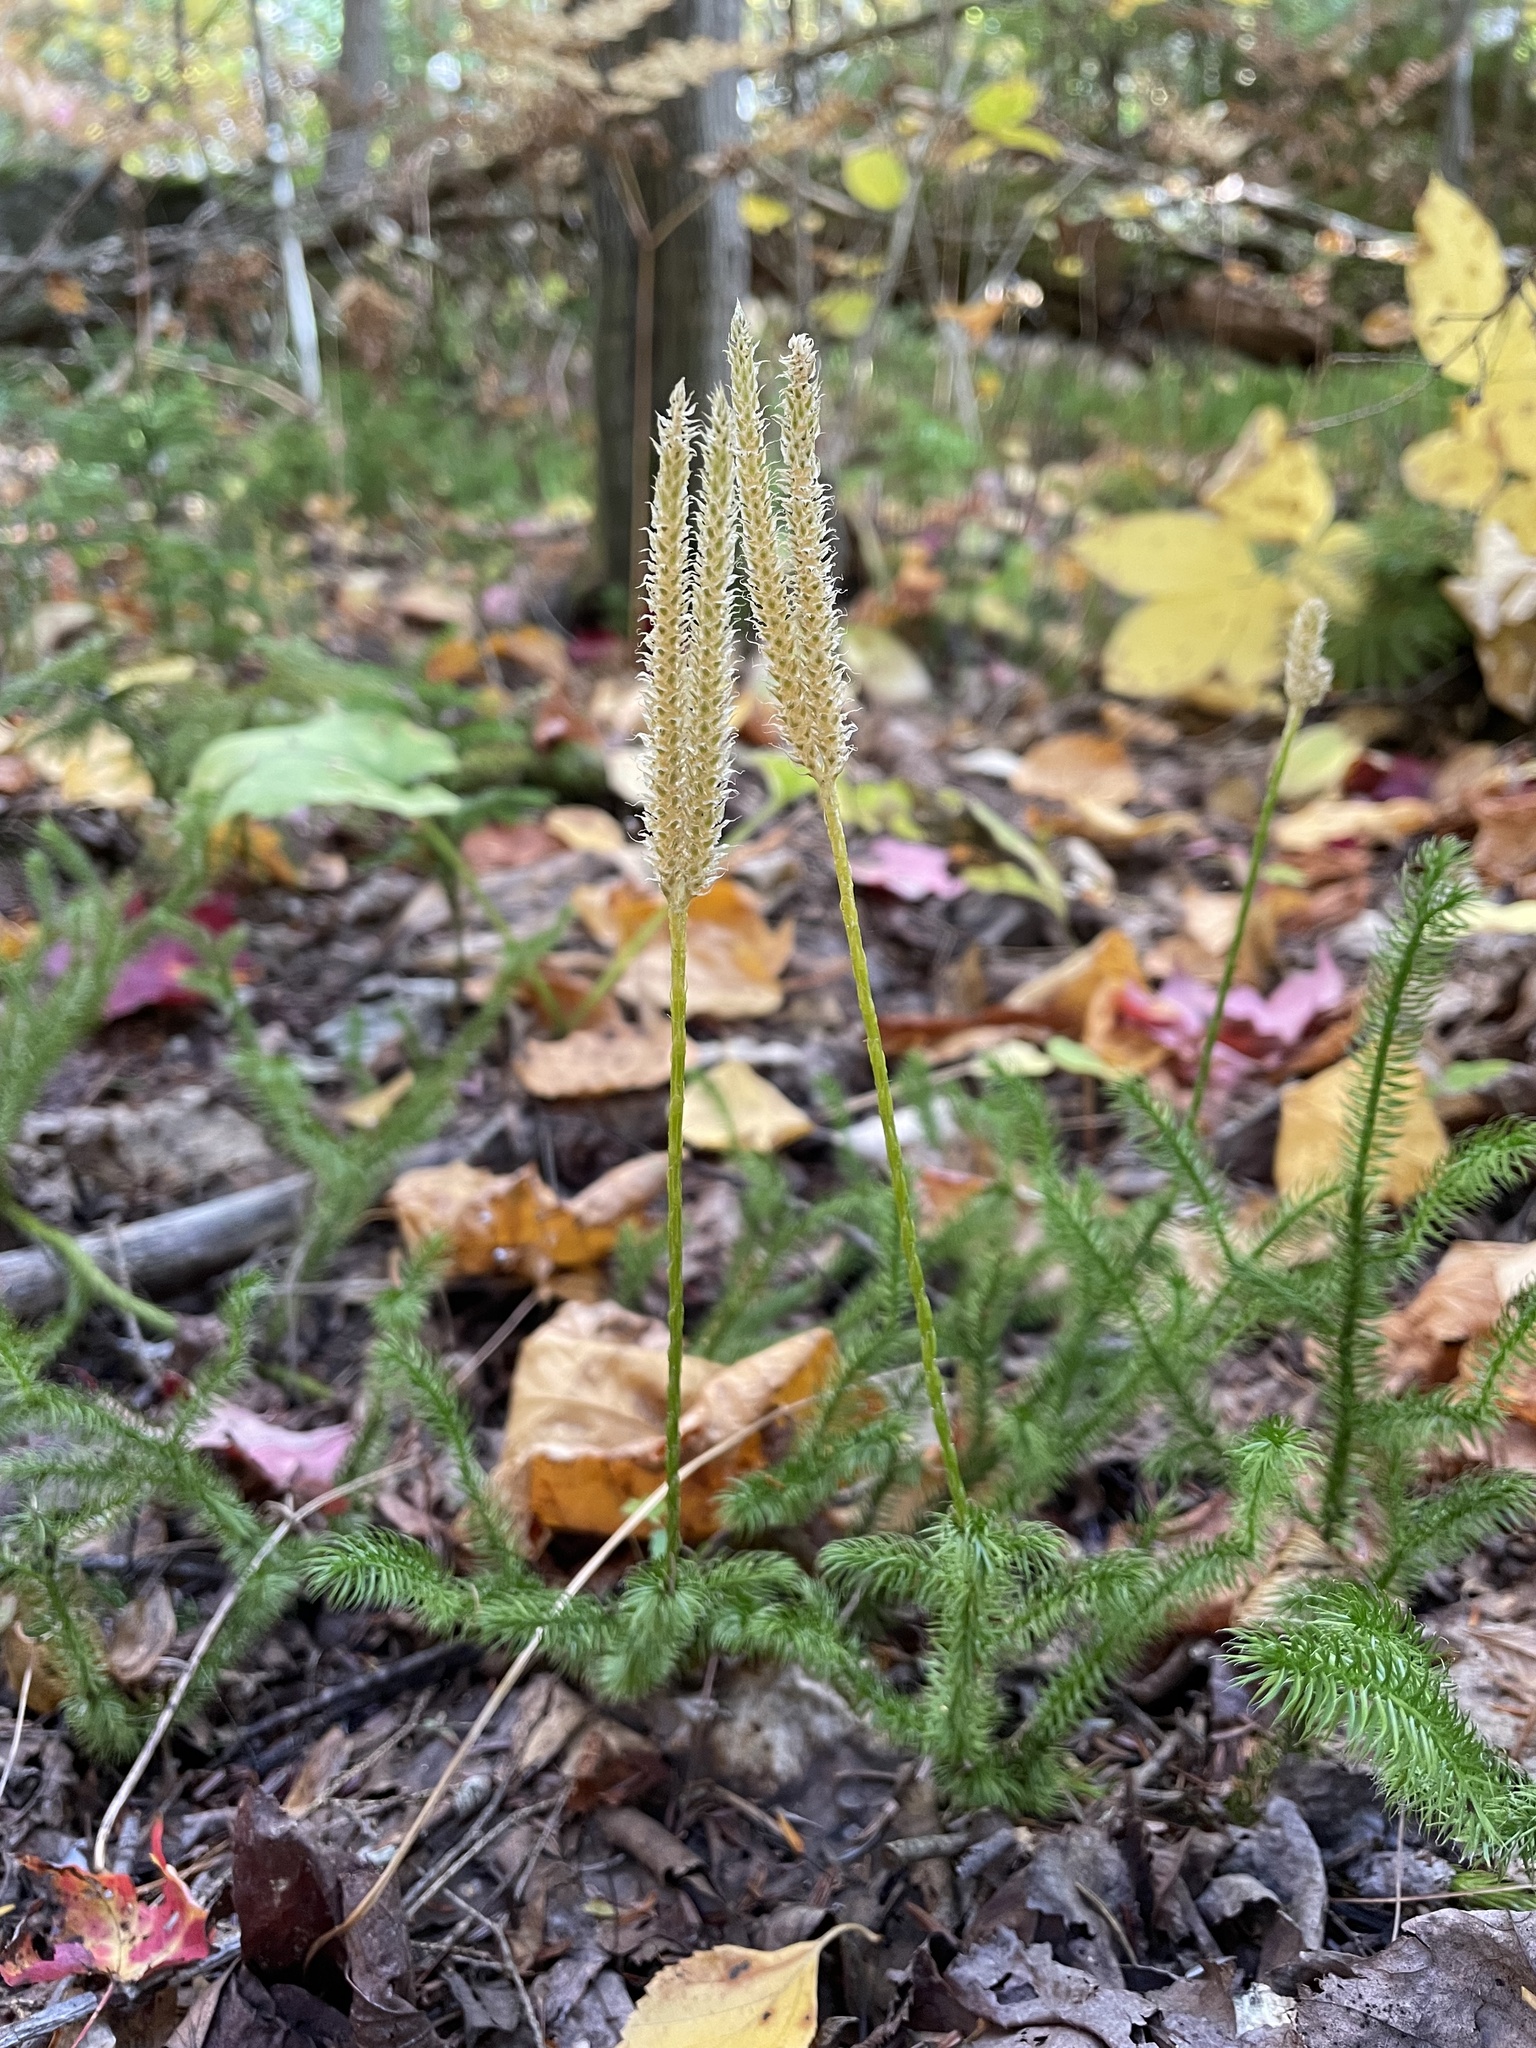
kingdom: Plantae
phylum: Tracheophyta
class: Lycopodiopsida
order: Lycopodiales
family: Lycopodiaceae
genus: Lycopodium
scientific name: Lycopodium clavatum
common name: Stag's-horn clubmoss
